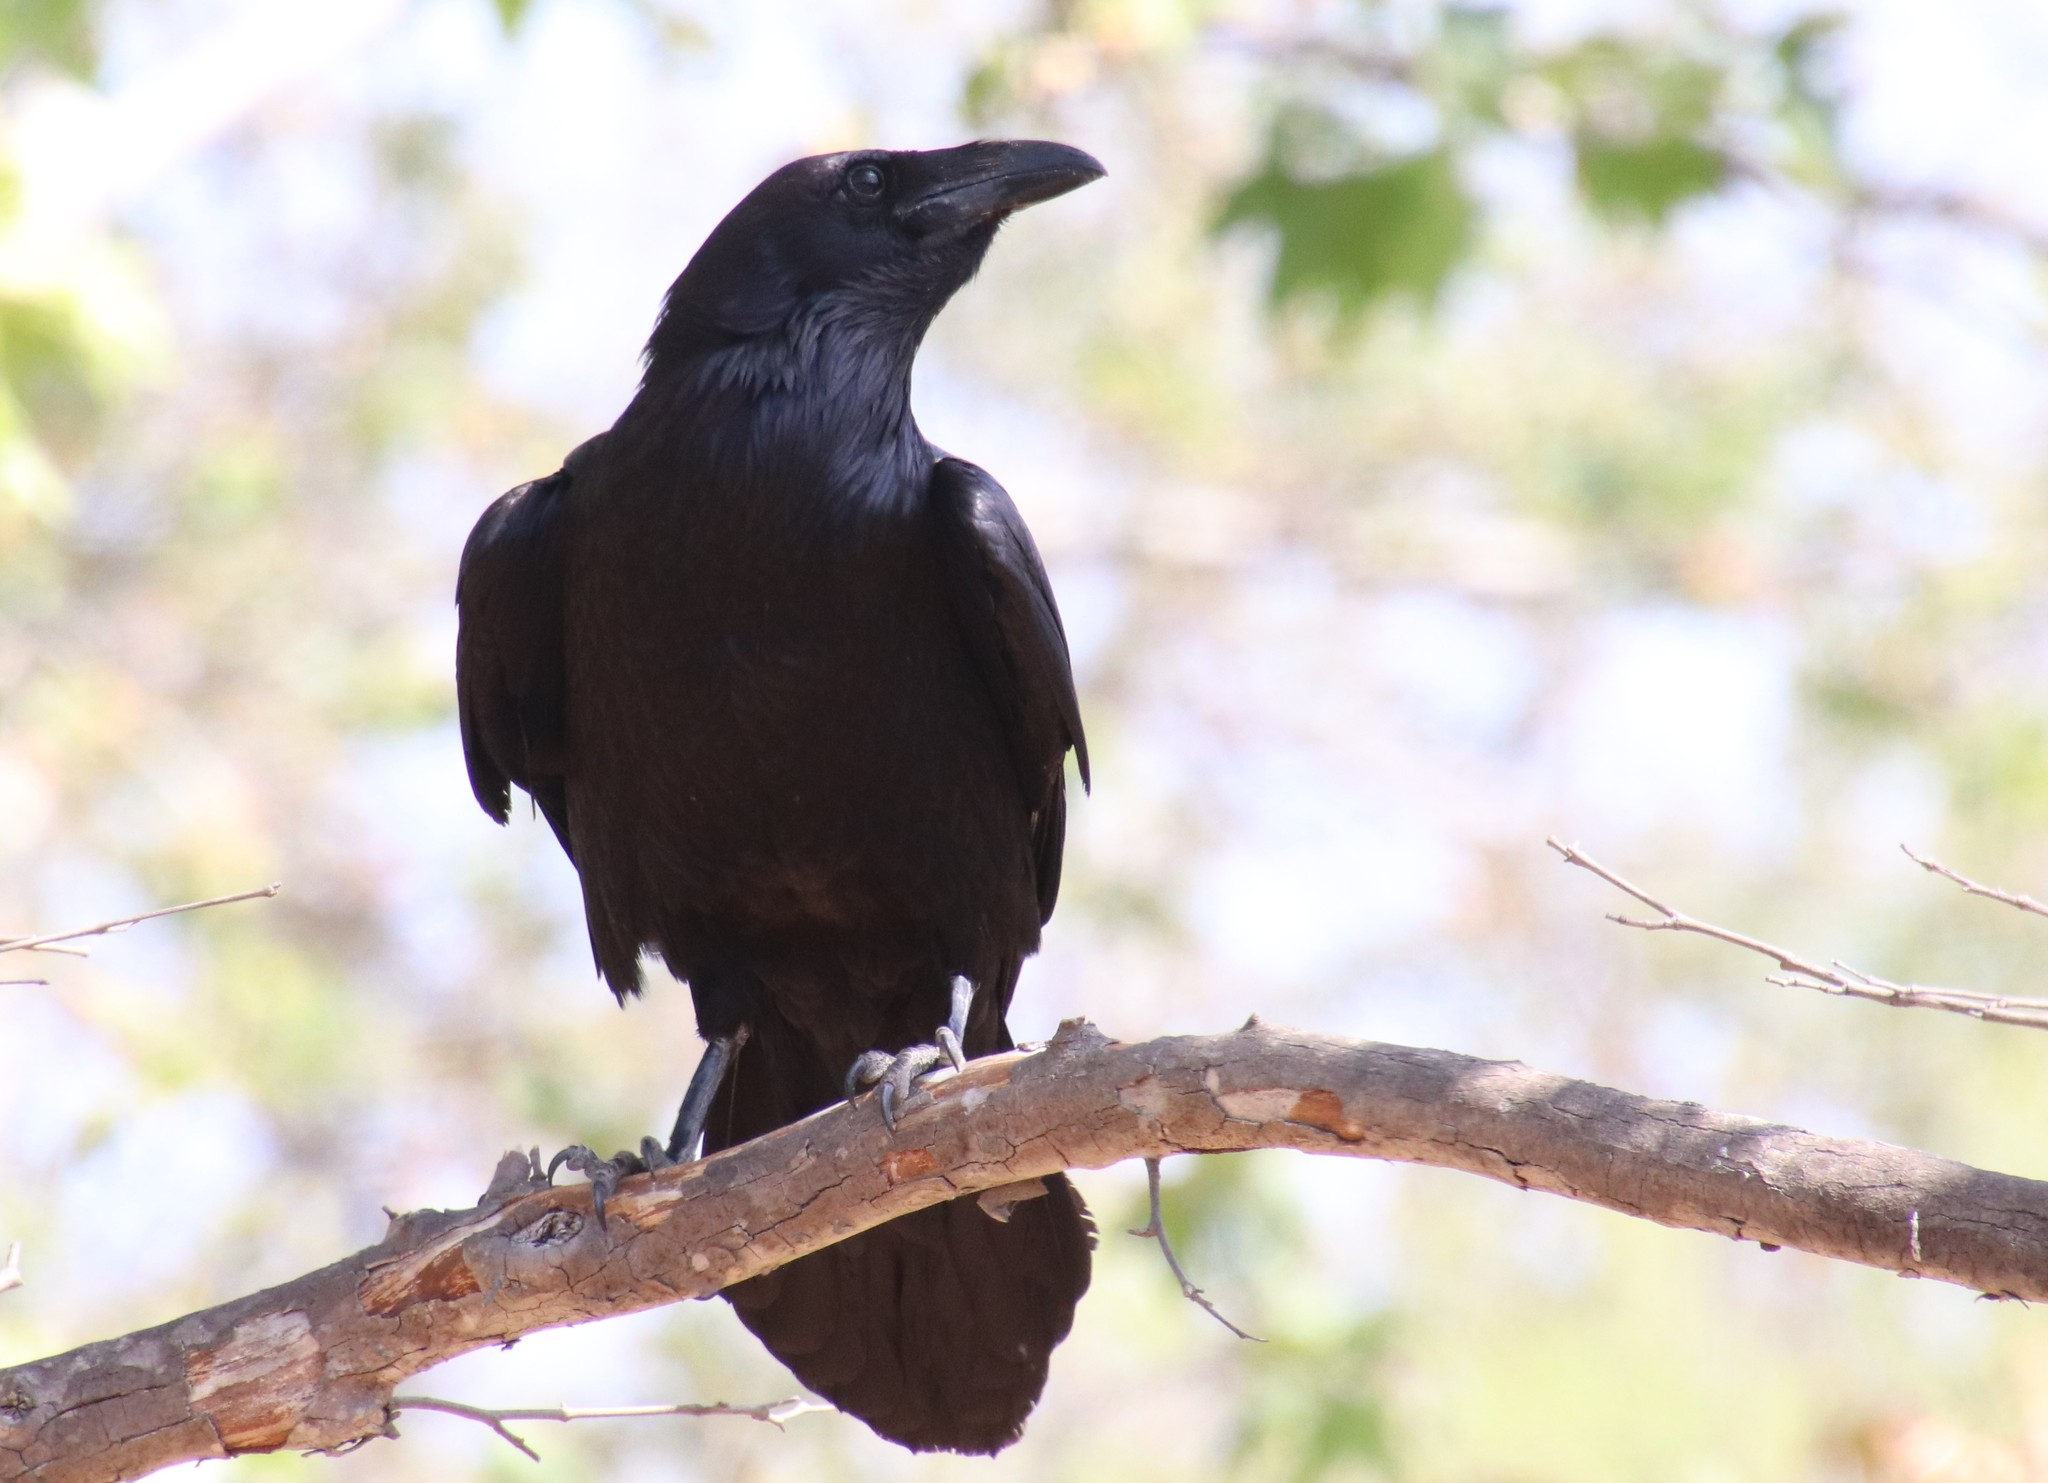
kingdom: Animalia
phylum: Chordata
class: Aves
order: Passeriformes
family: Corvidae
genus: Corvus
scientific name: Corvus corax
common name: Common raven
